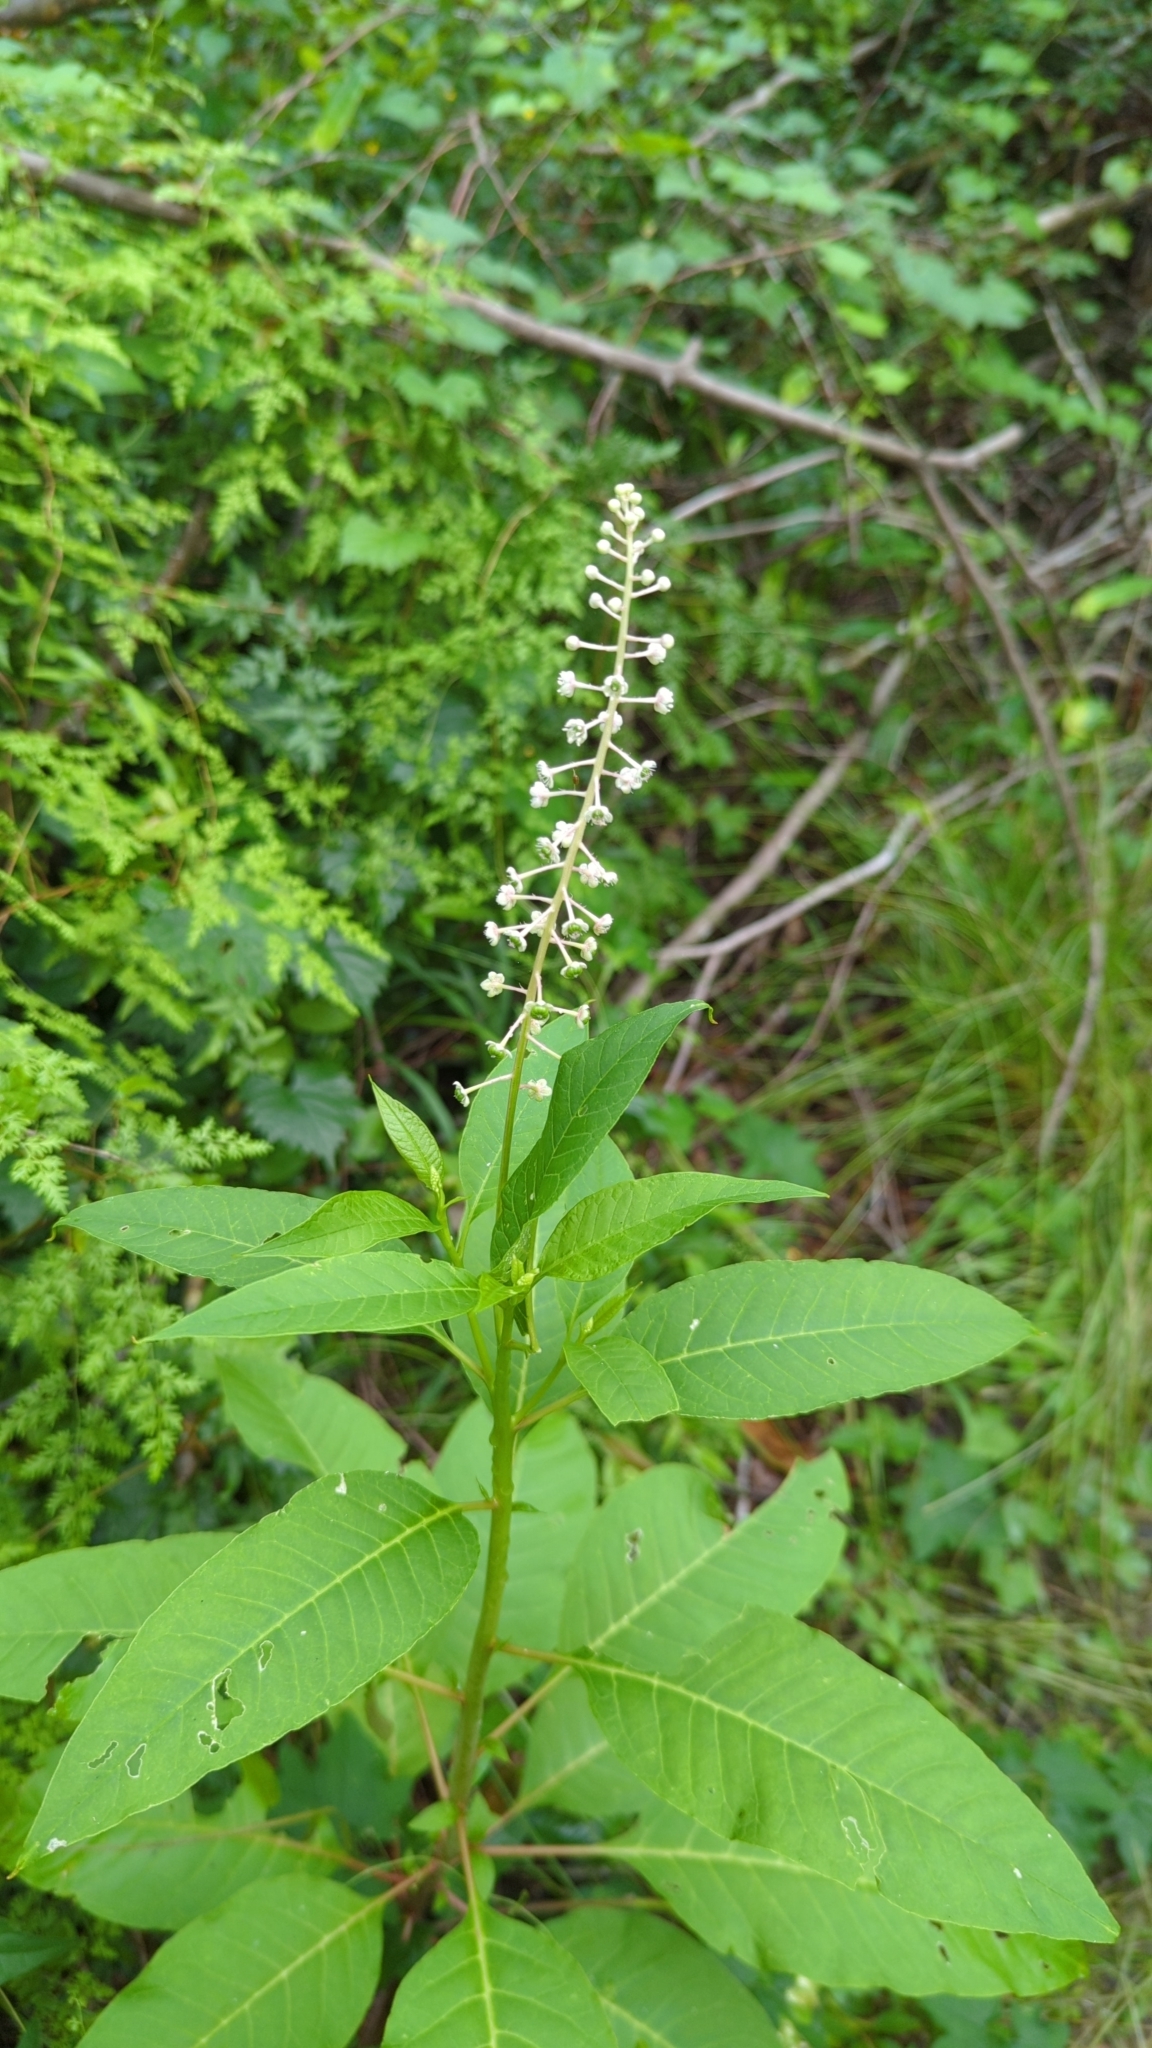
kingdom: Plantae
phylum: Tracheophyta
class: Magnoliopsida
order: Caryophyllales
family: Phytolaccaceae
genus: Phytolacca
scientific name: Phytolacca americana
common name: American pokeweed
